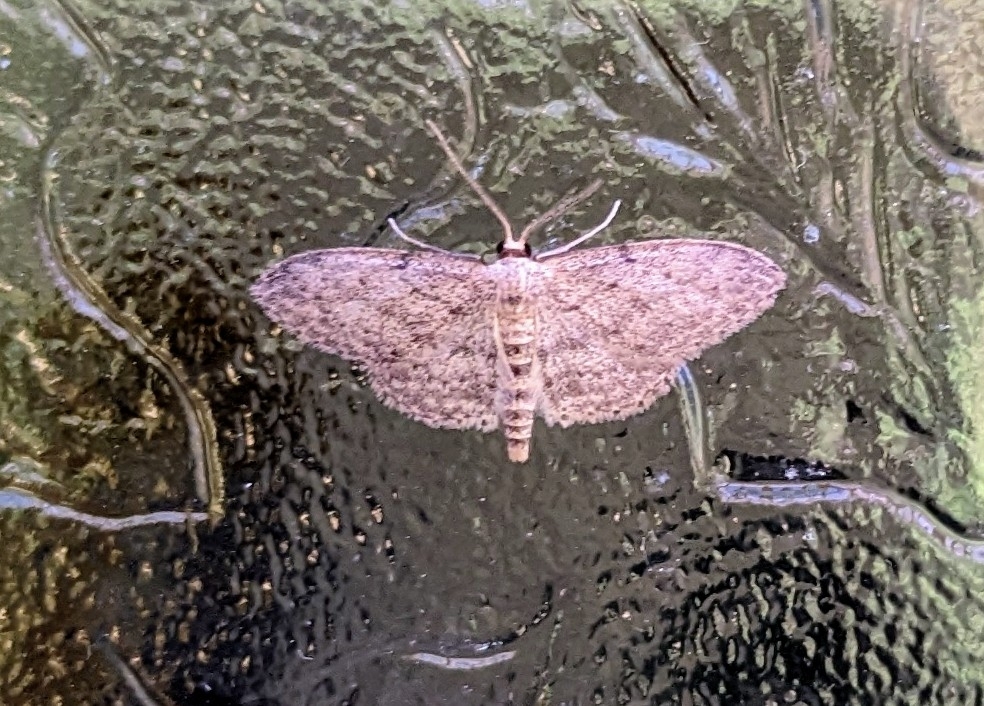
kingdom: Animalia
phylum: Arthropoda
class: Insecta
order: Lepidoptera
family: Geometridae
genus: Idaea
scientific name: Idaea seriata
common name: Small dusty wave
